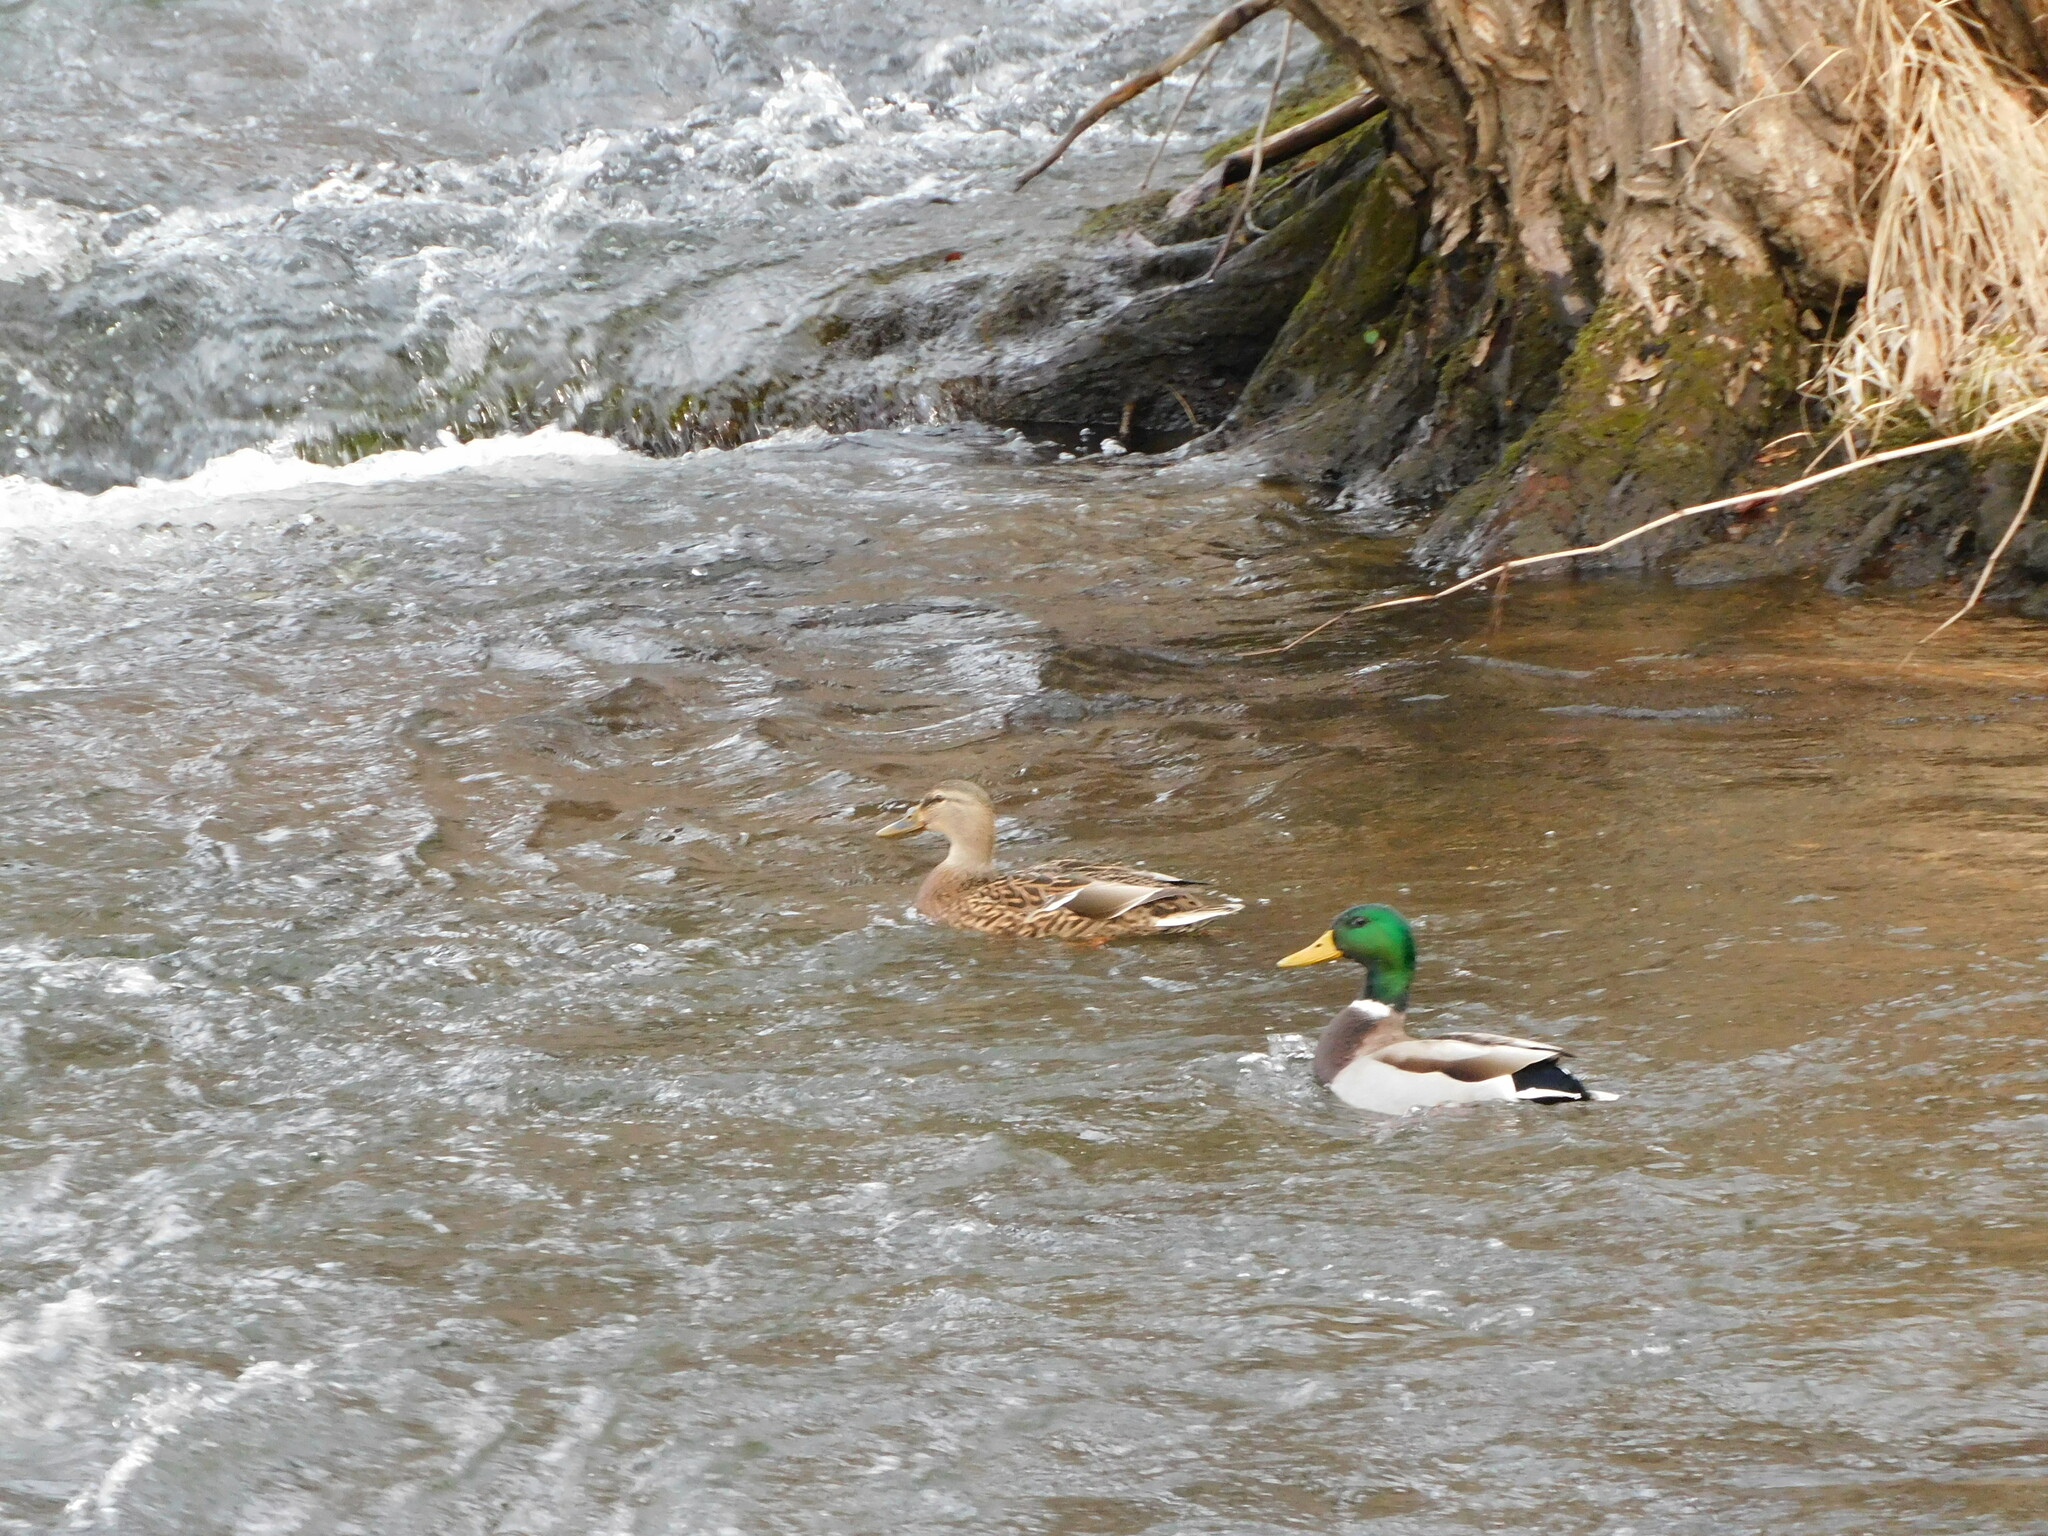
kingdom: Animalia
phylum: Chordata
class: Aves
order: Anseriformes
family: Anatidae
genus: Anas
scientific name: Anas platyrhynchos
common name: Mallard
